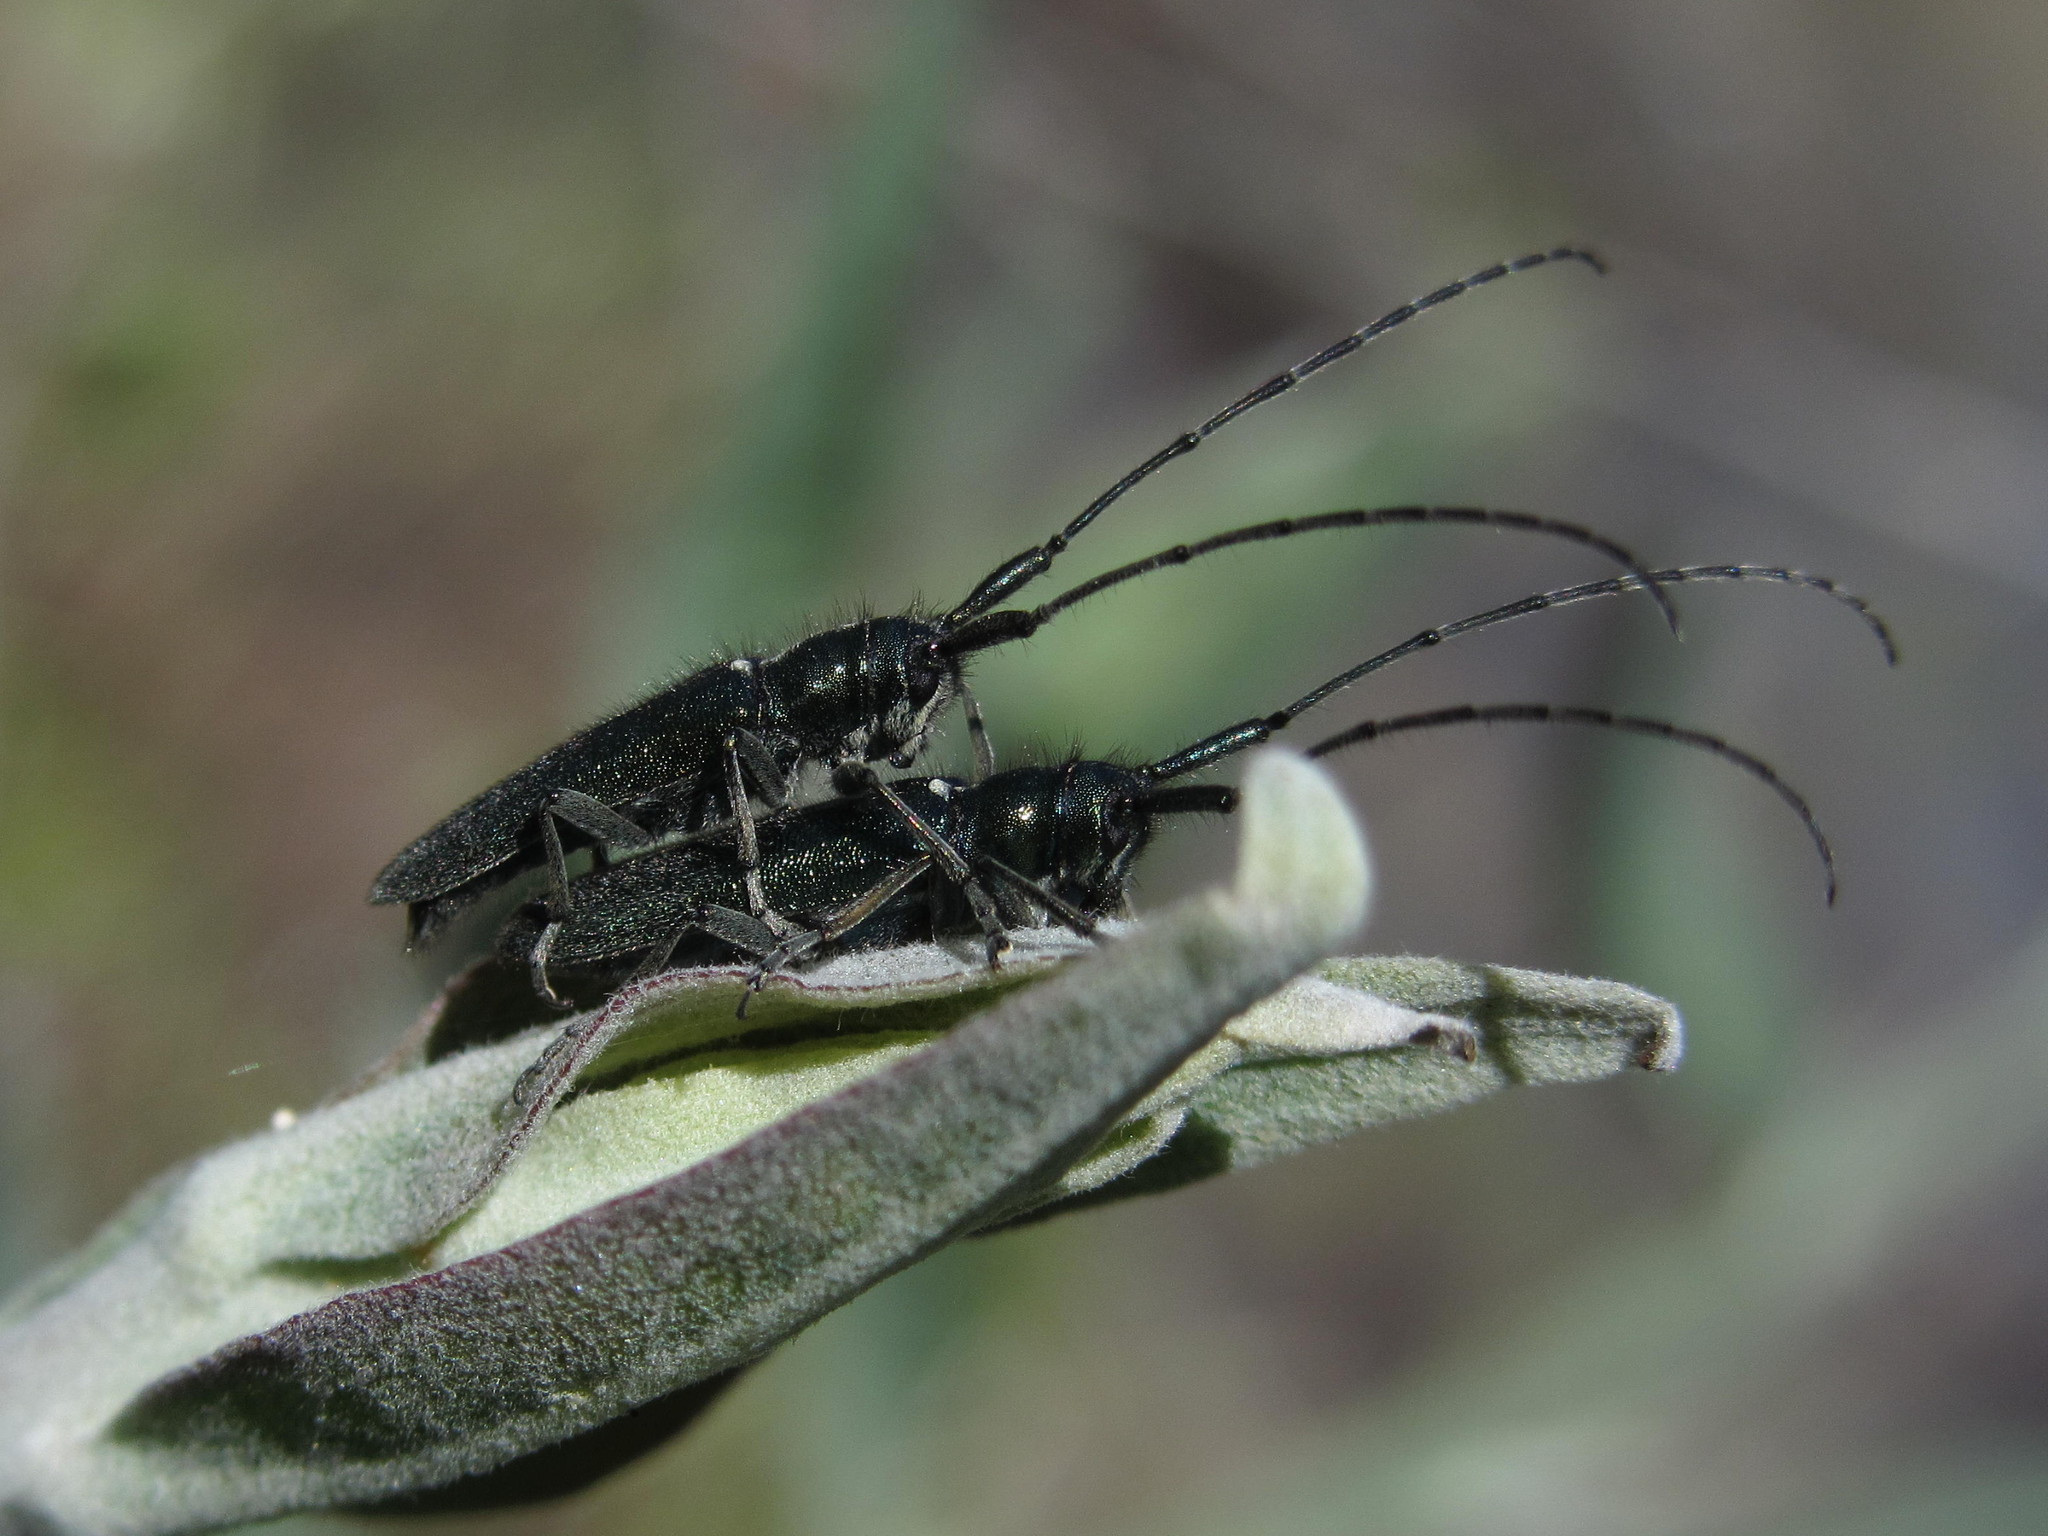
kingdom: Animalia
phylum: Arthropoda
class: Insecta
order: Coleoptera
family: Cerambycidae
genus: Agapanthia
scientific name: Agapanthia violacea
